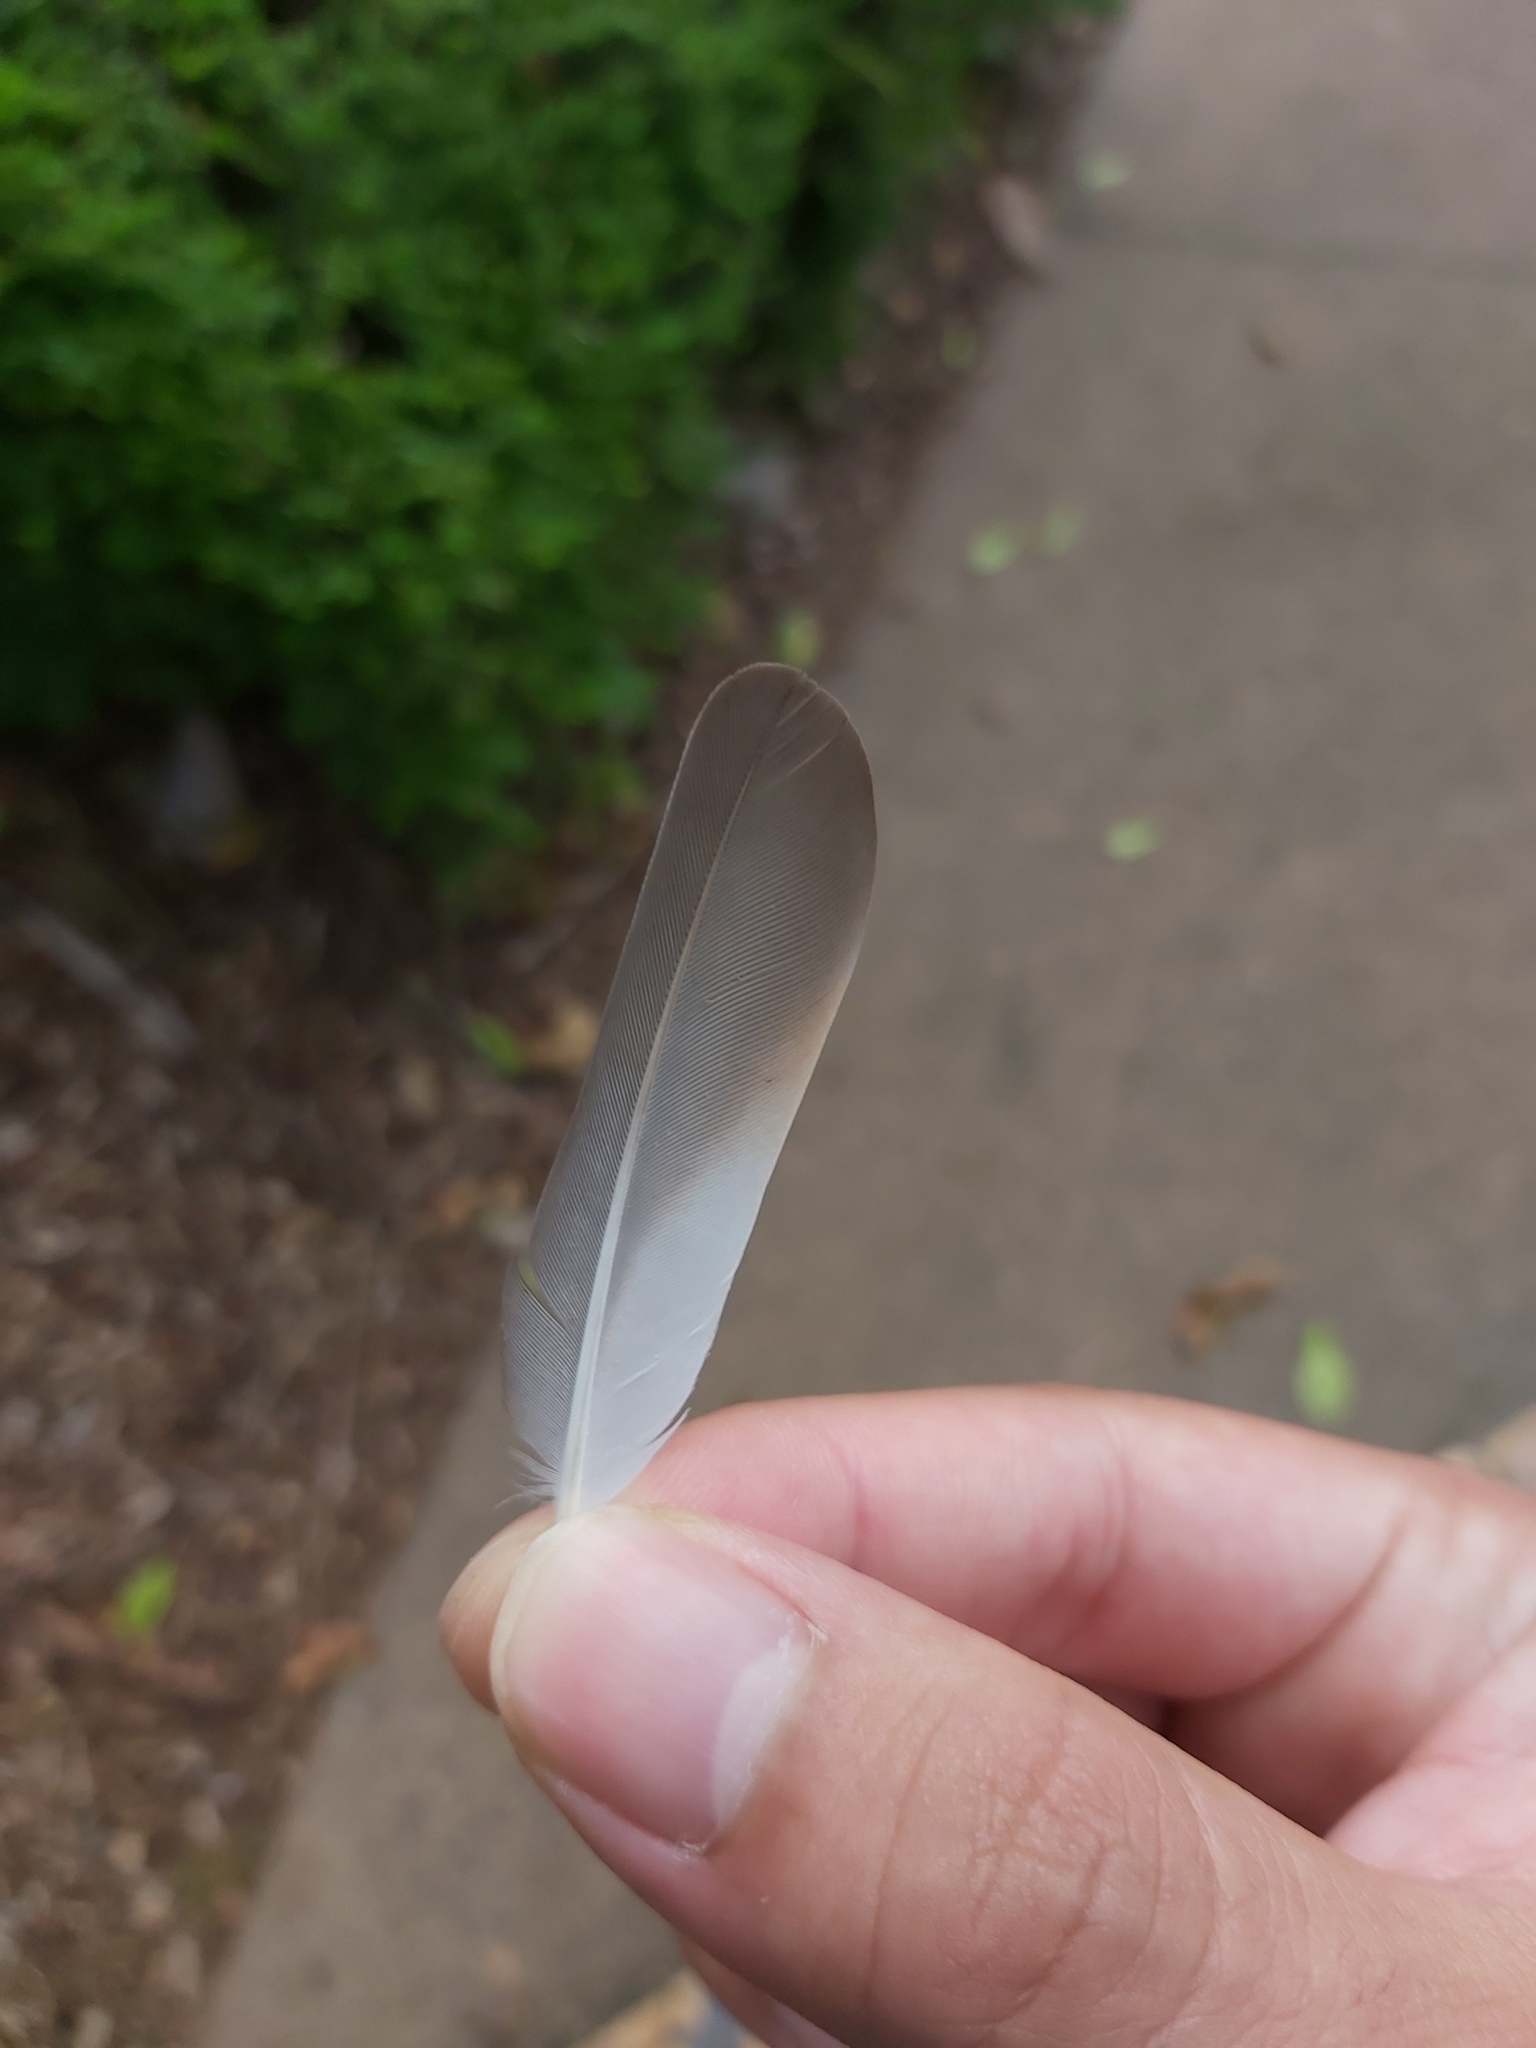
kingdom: Animalia
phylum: Chordata
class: Aves
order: Columbiformes
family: Columbidae
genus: Geopelia
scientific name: Geopelia placida
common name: Peaceful dove
